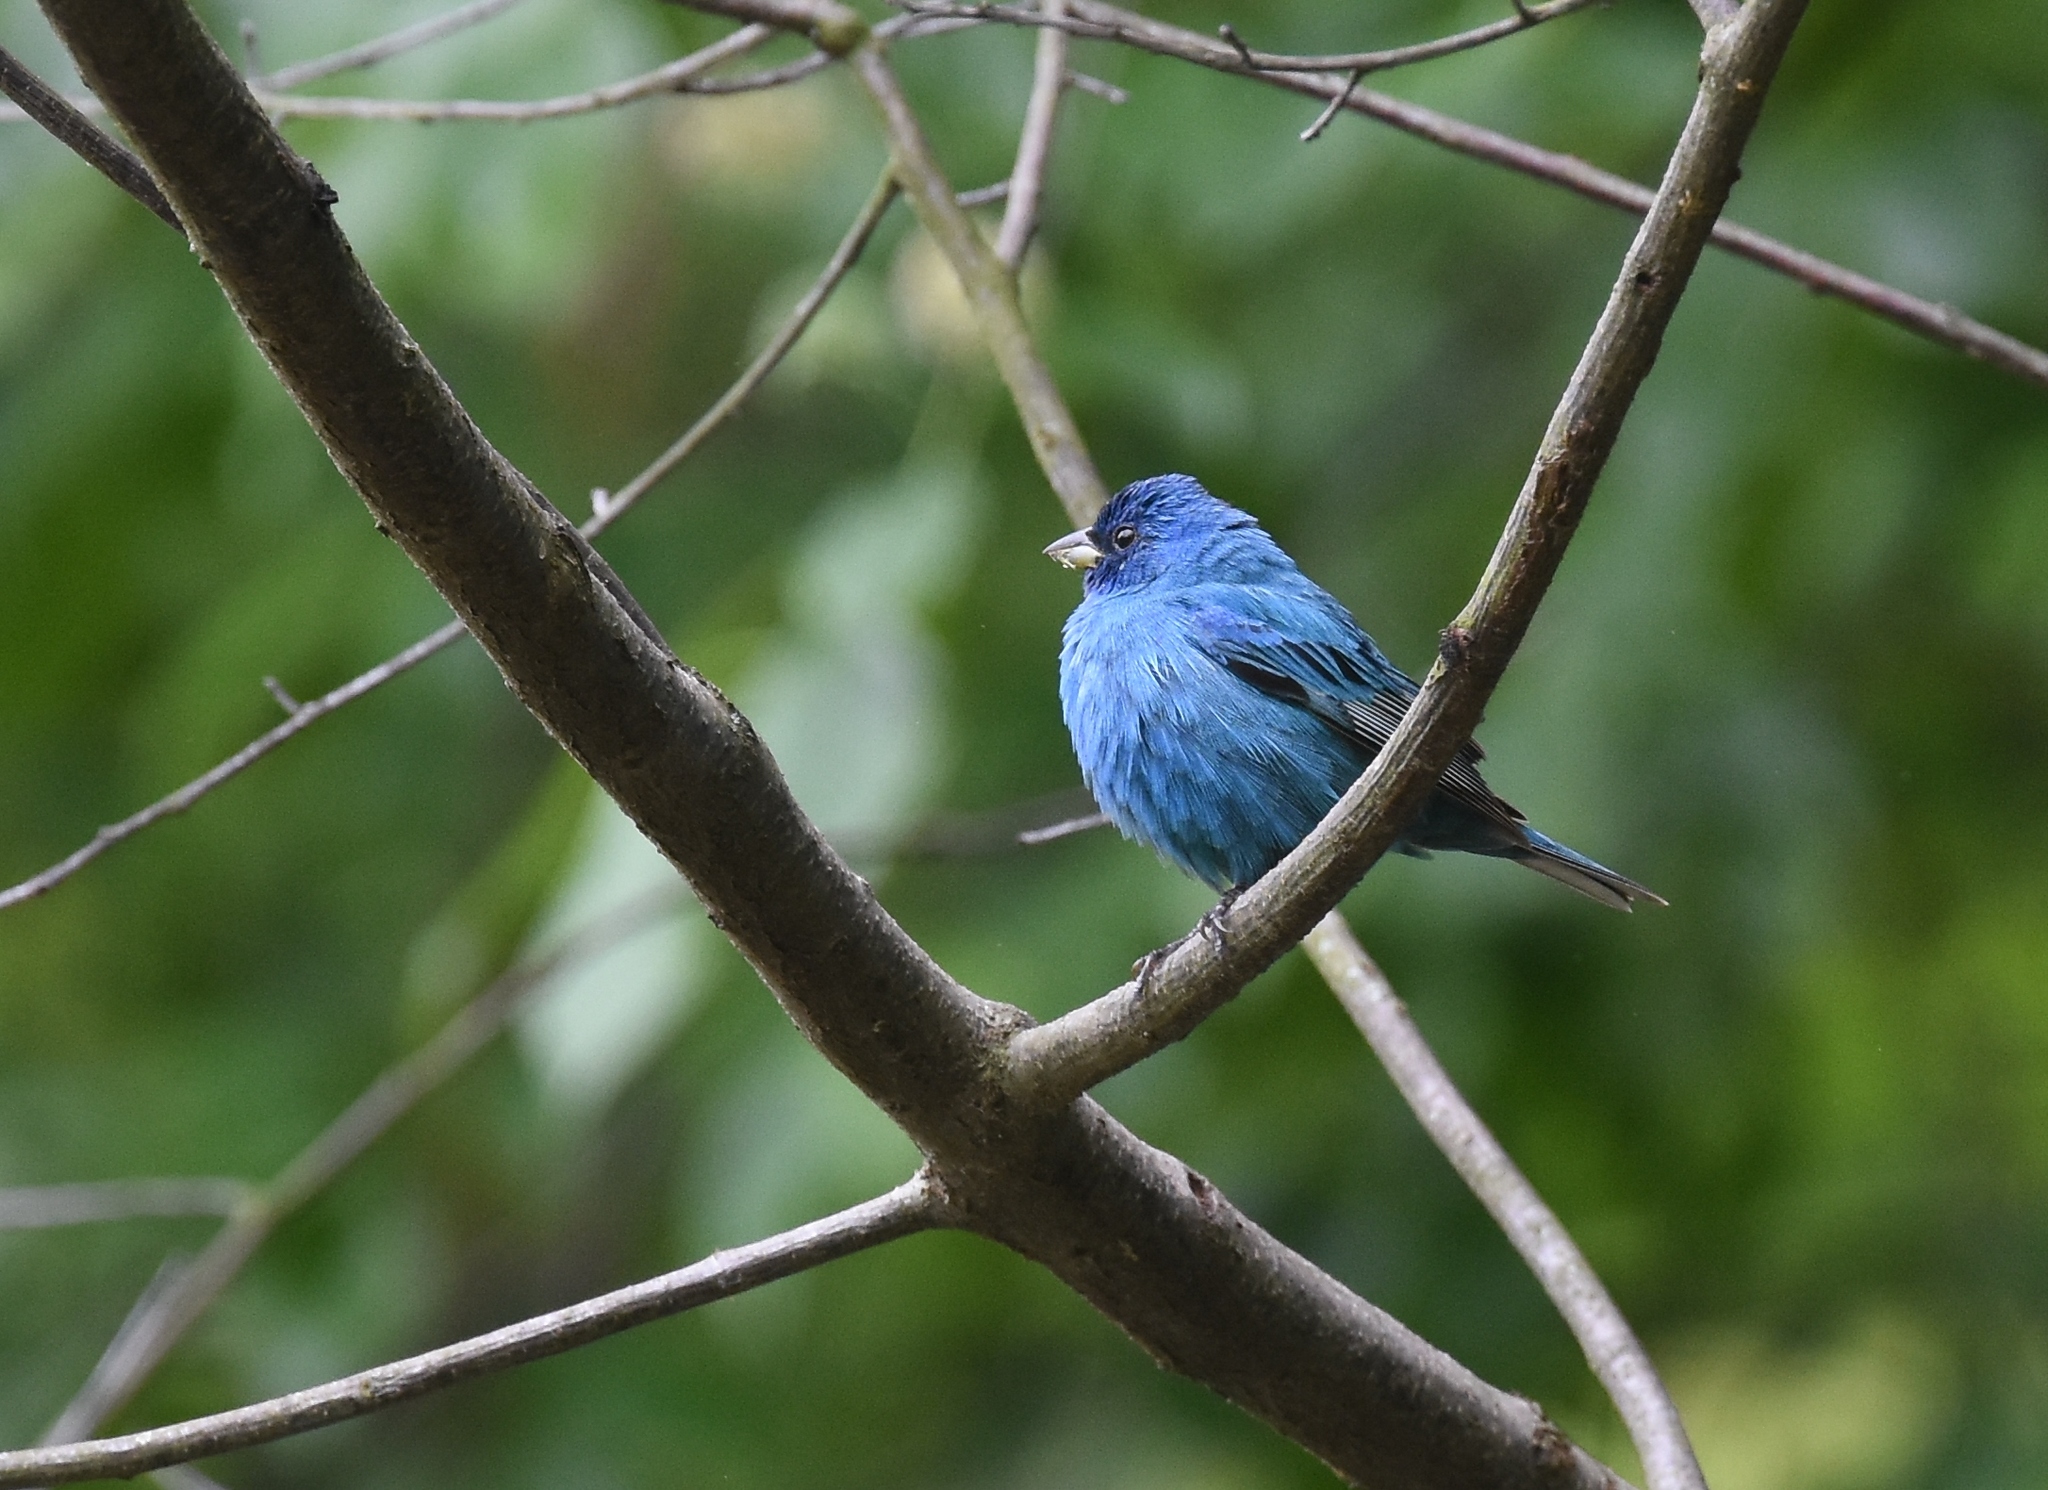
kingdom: Animalia
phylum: Chordata
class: Aves
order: Passeriformes
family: Cardinalidae
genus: Passerina
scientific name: Passerina cyanea
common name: Indigo bunting
